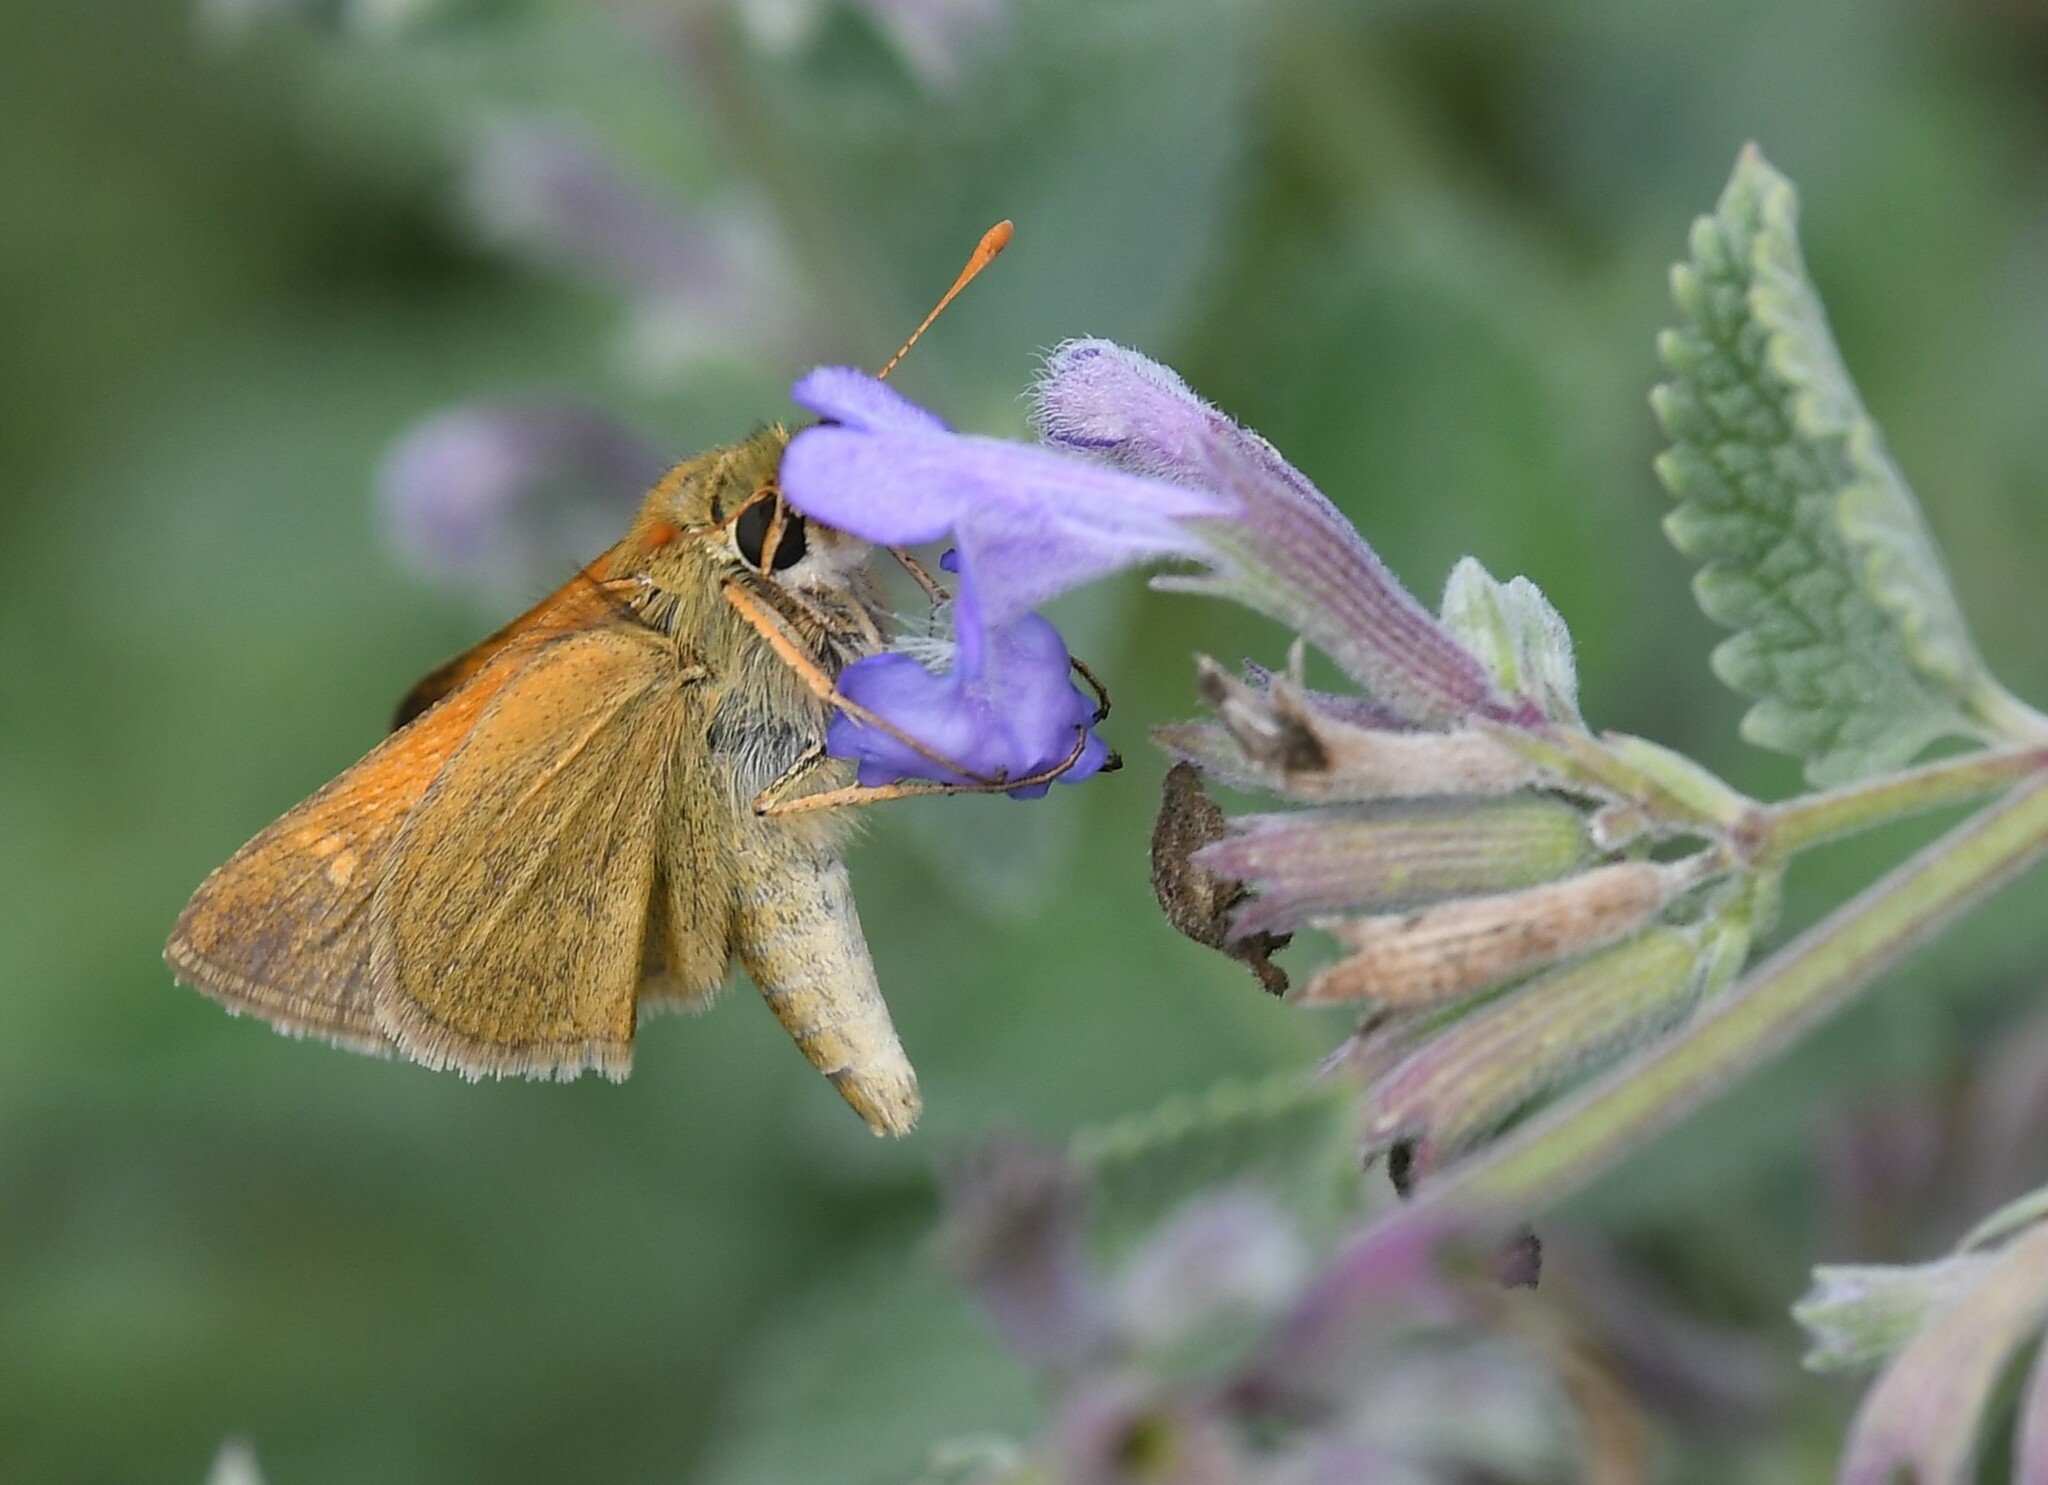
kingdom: Animalia
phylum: Arthropoda
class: Insecta
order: Lepidoptera
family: Hesperiidae
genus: Polites
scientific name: Polites themistocles
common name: Tawny-edged skipper
